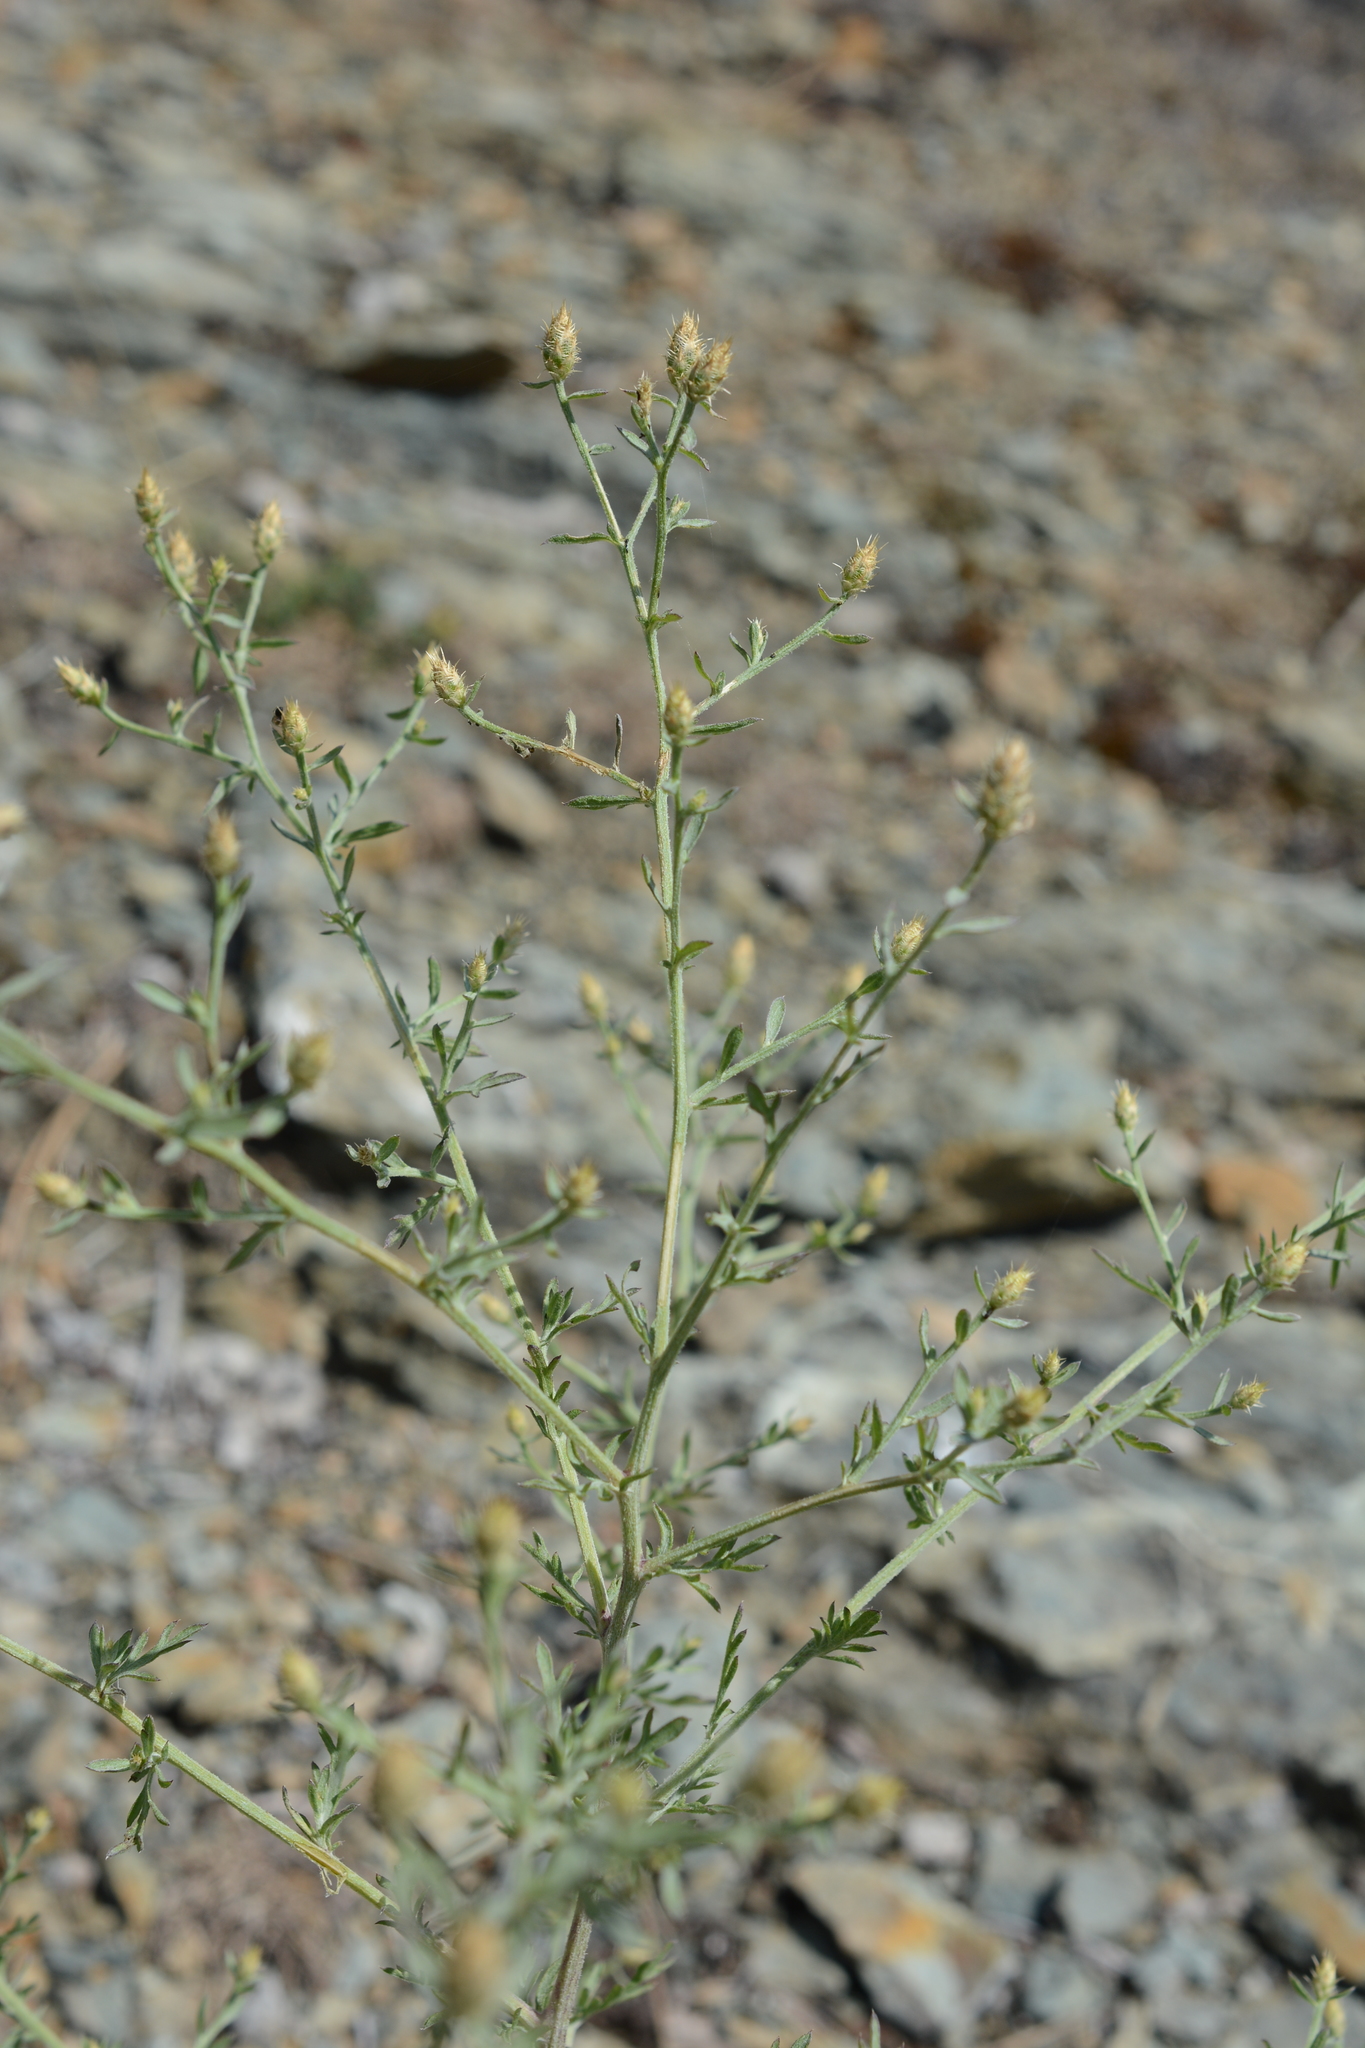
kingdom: Plantae
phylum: Tracheophyta
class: Magnoliopsida
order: Asterales
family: Asteraceae
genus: Centaurea
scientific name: Centaurea diffusa
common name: Diffuse knapweed
